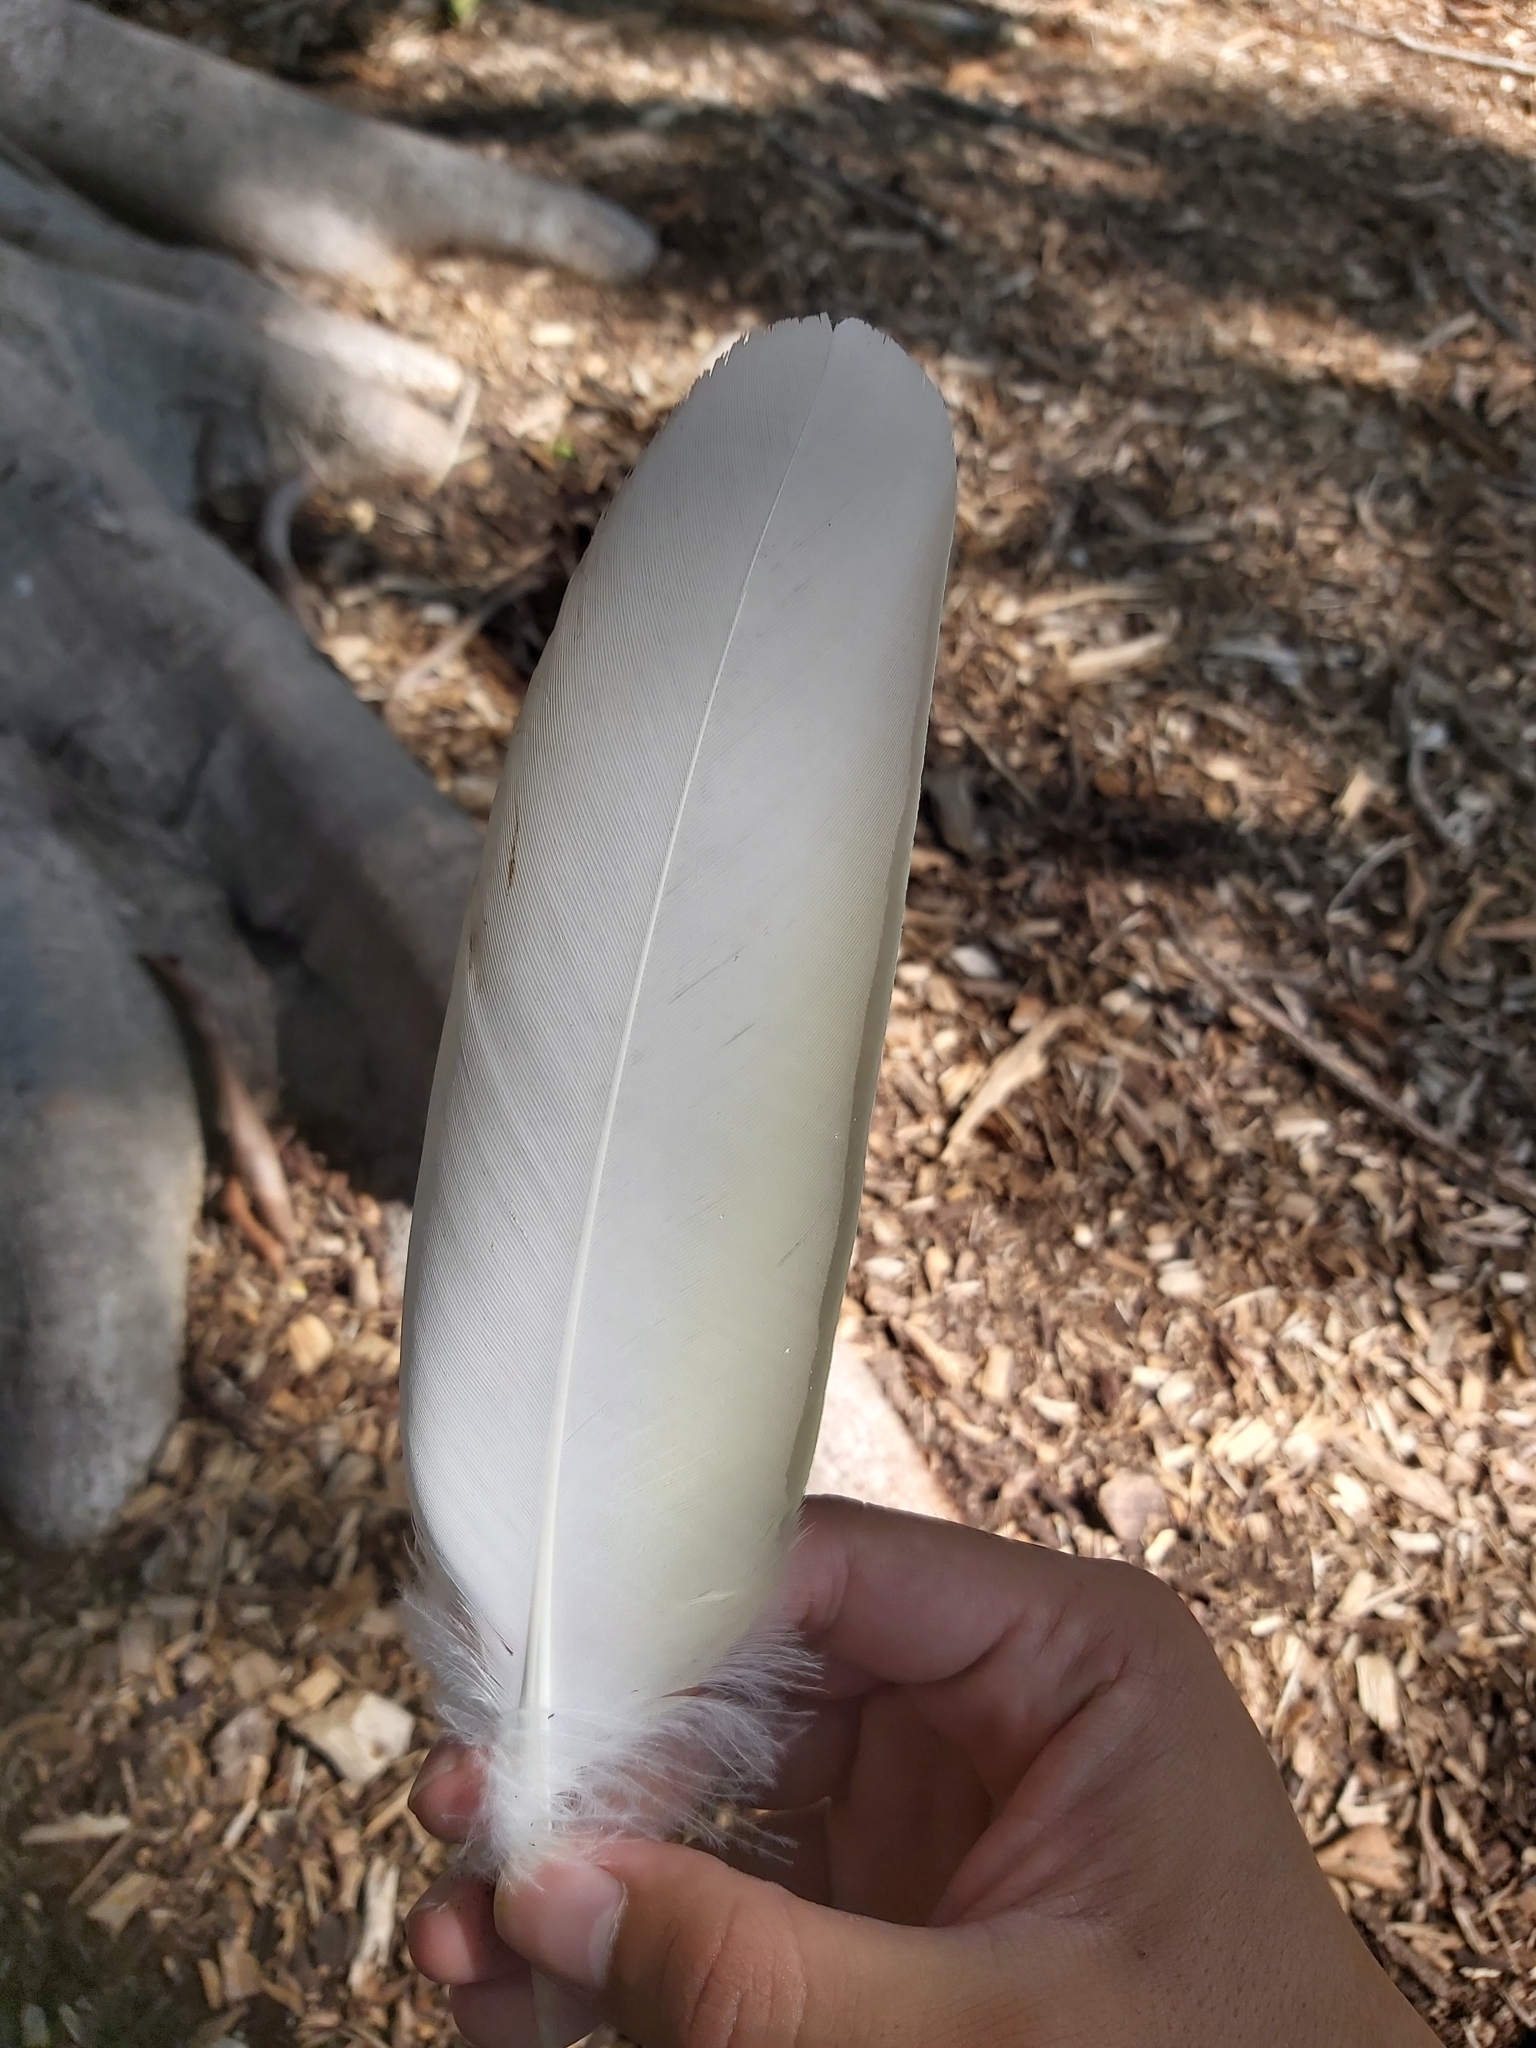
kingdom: Animalia
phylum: Chordata
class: Aves
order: Psittaciformes
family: Psittacidae
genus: Cacatua
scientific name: Cacatua galerita
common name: Sulphur-crested cockatoo
